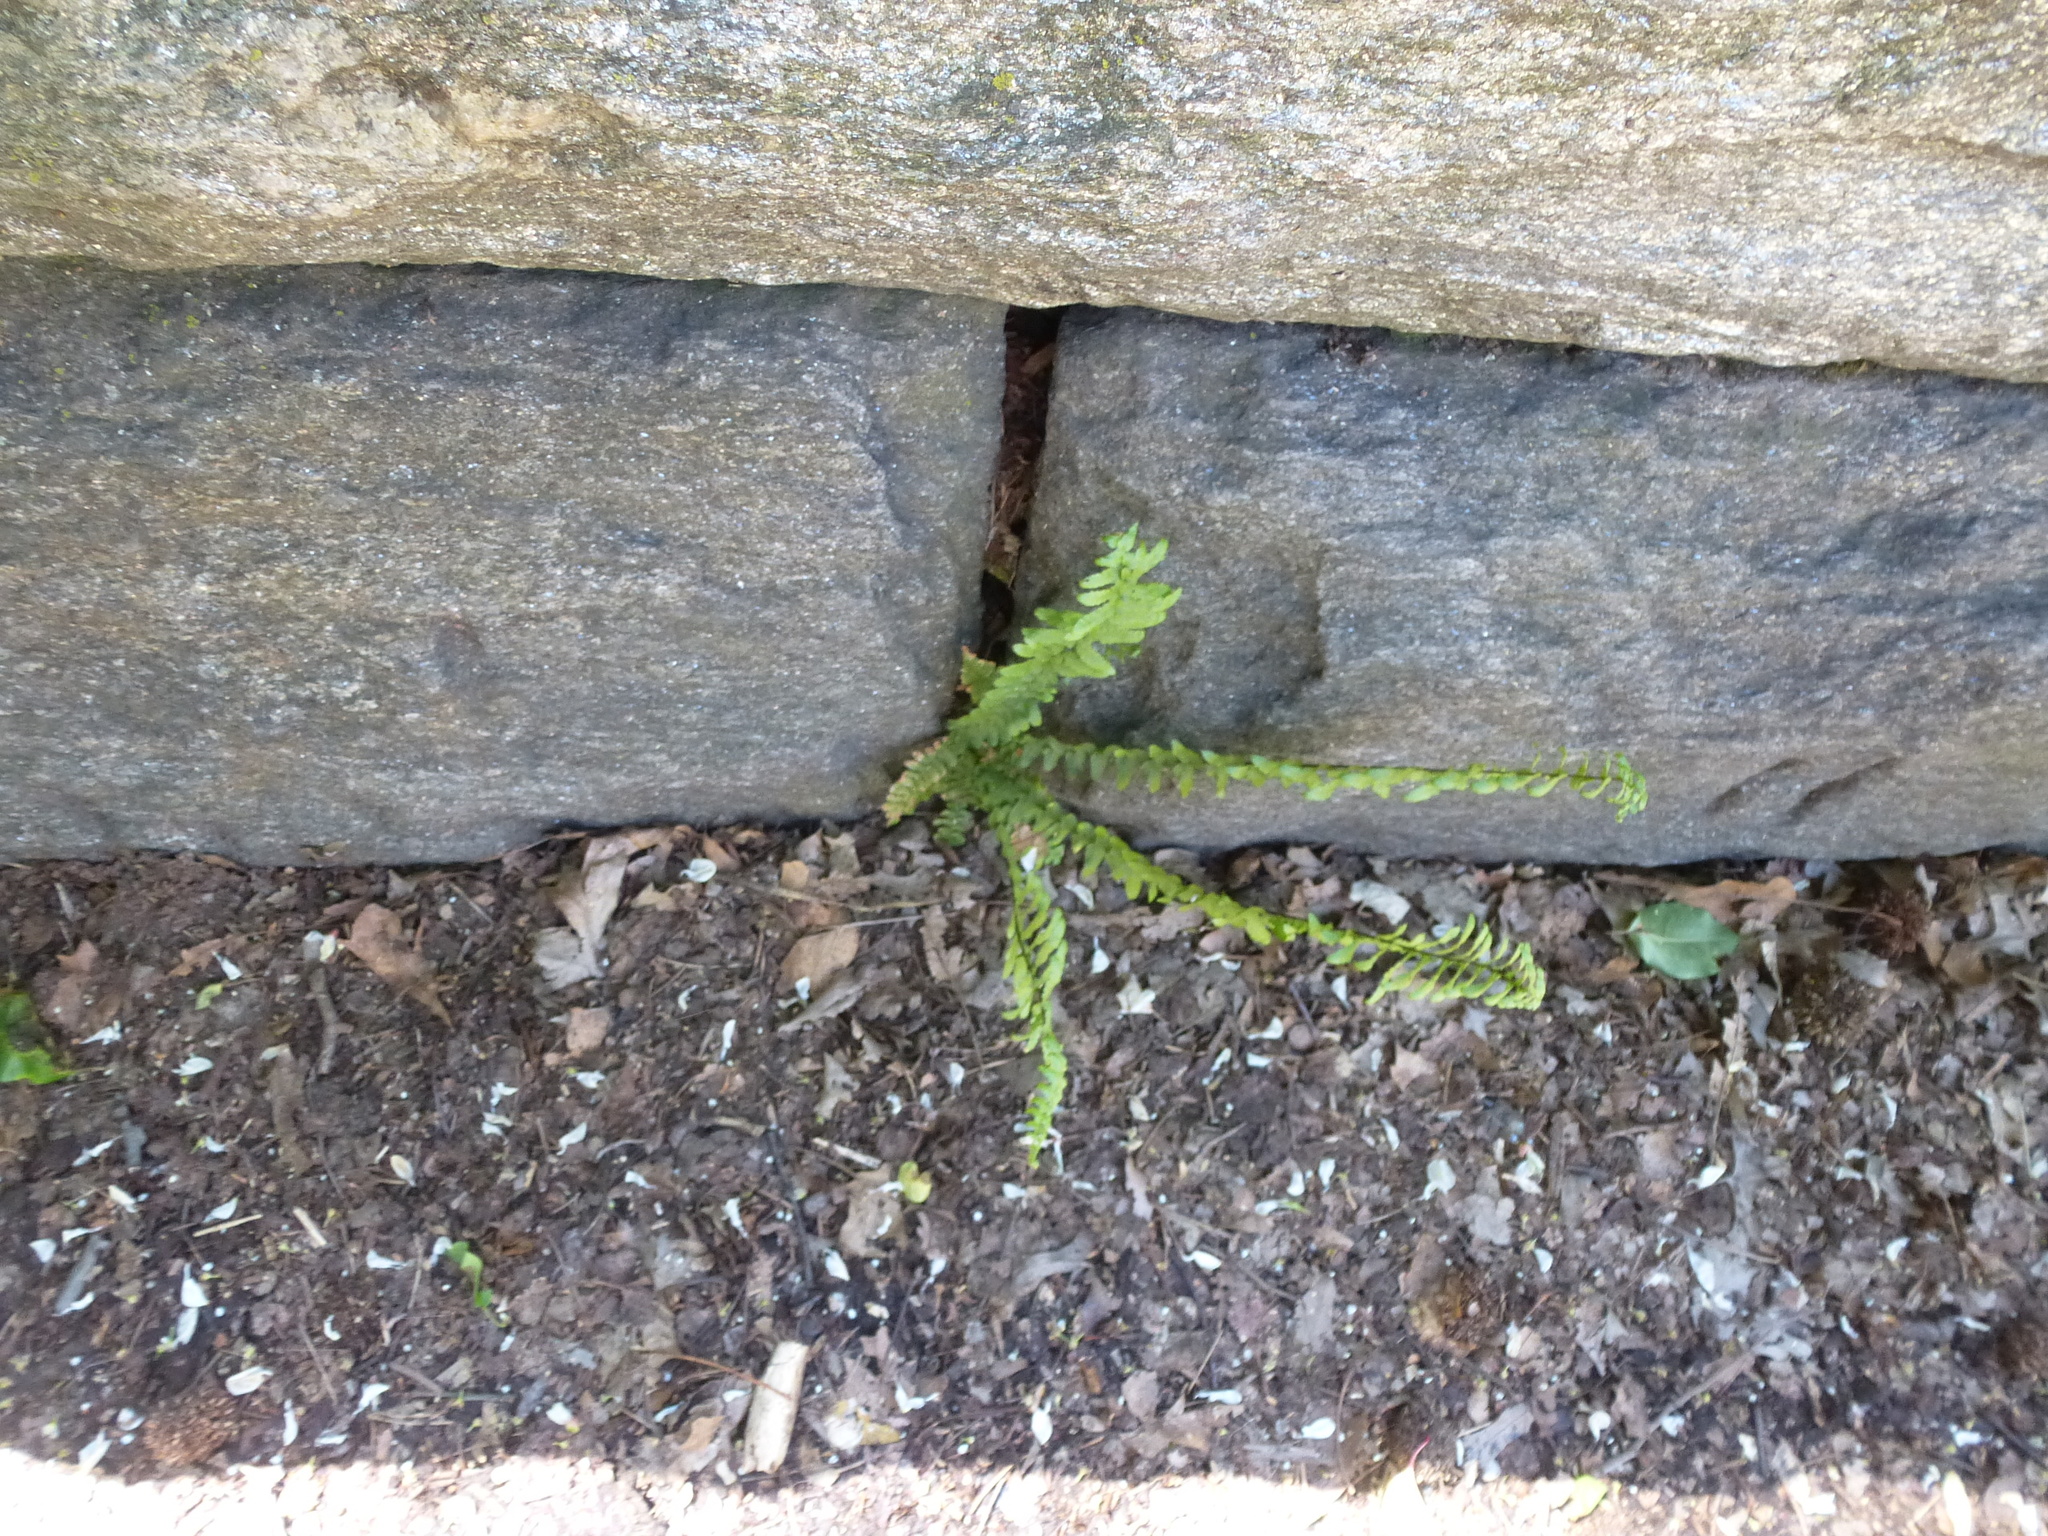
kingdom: Plantae
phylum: Tracheophyta
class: Polypodiopsida
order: Polypodiales
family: Aspleniaceae
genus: Asplenium
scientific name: Asplenium platyneuron
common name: Ebony spleenwort
